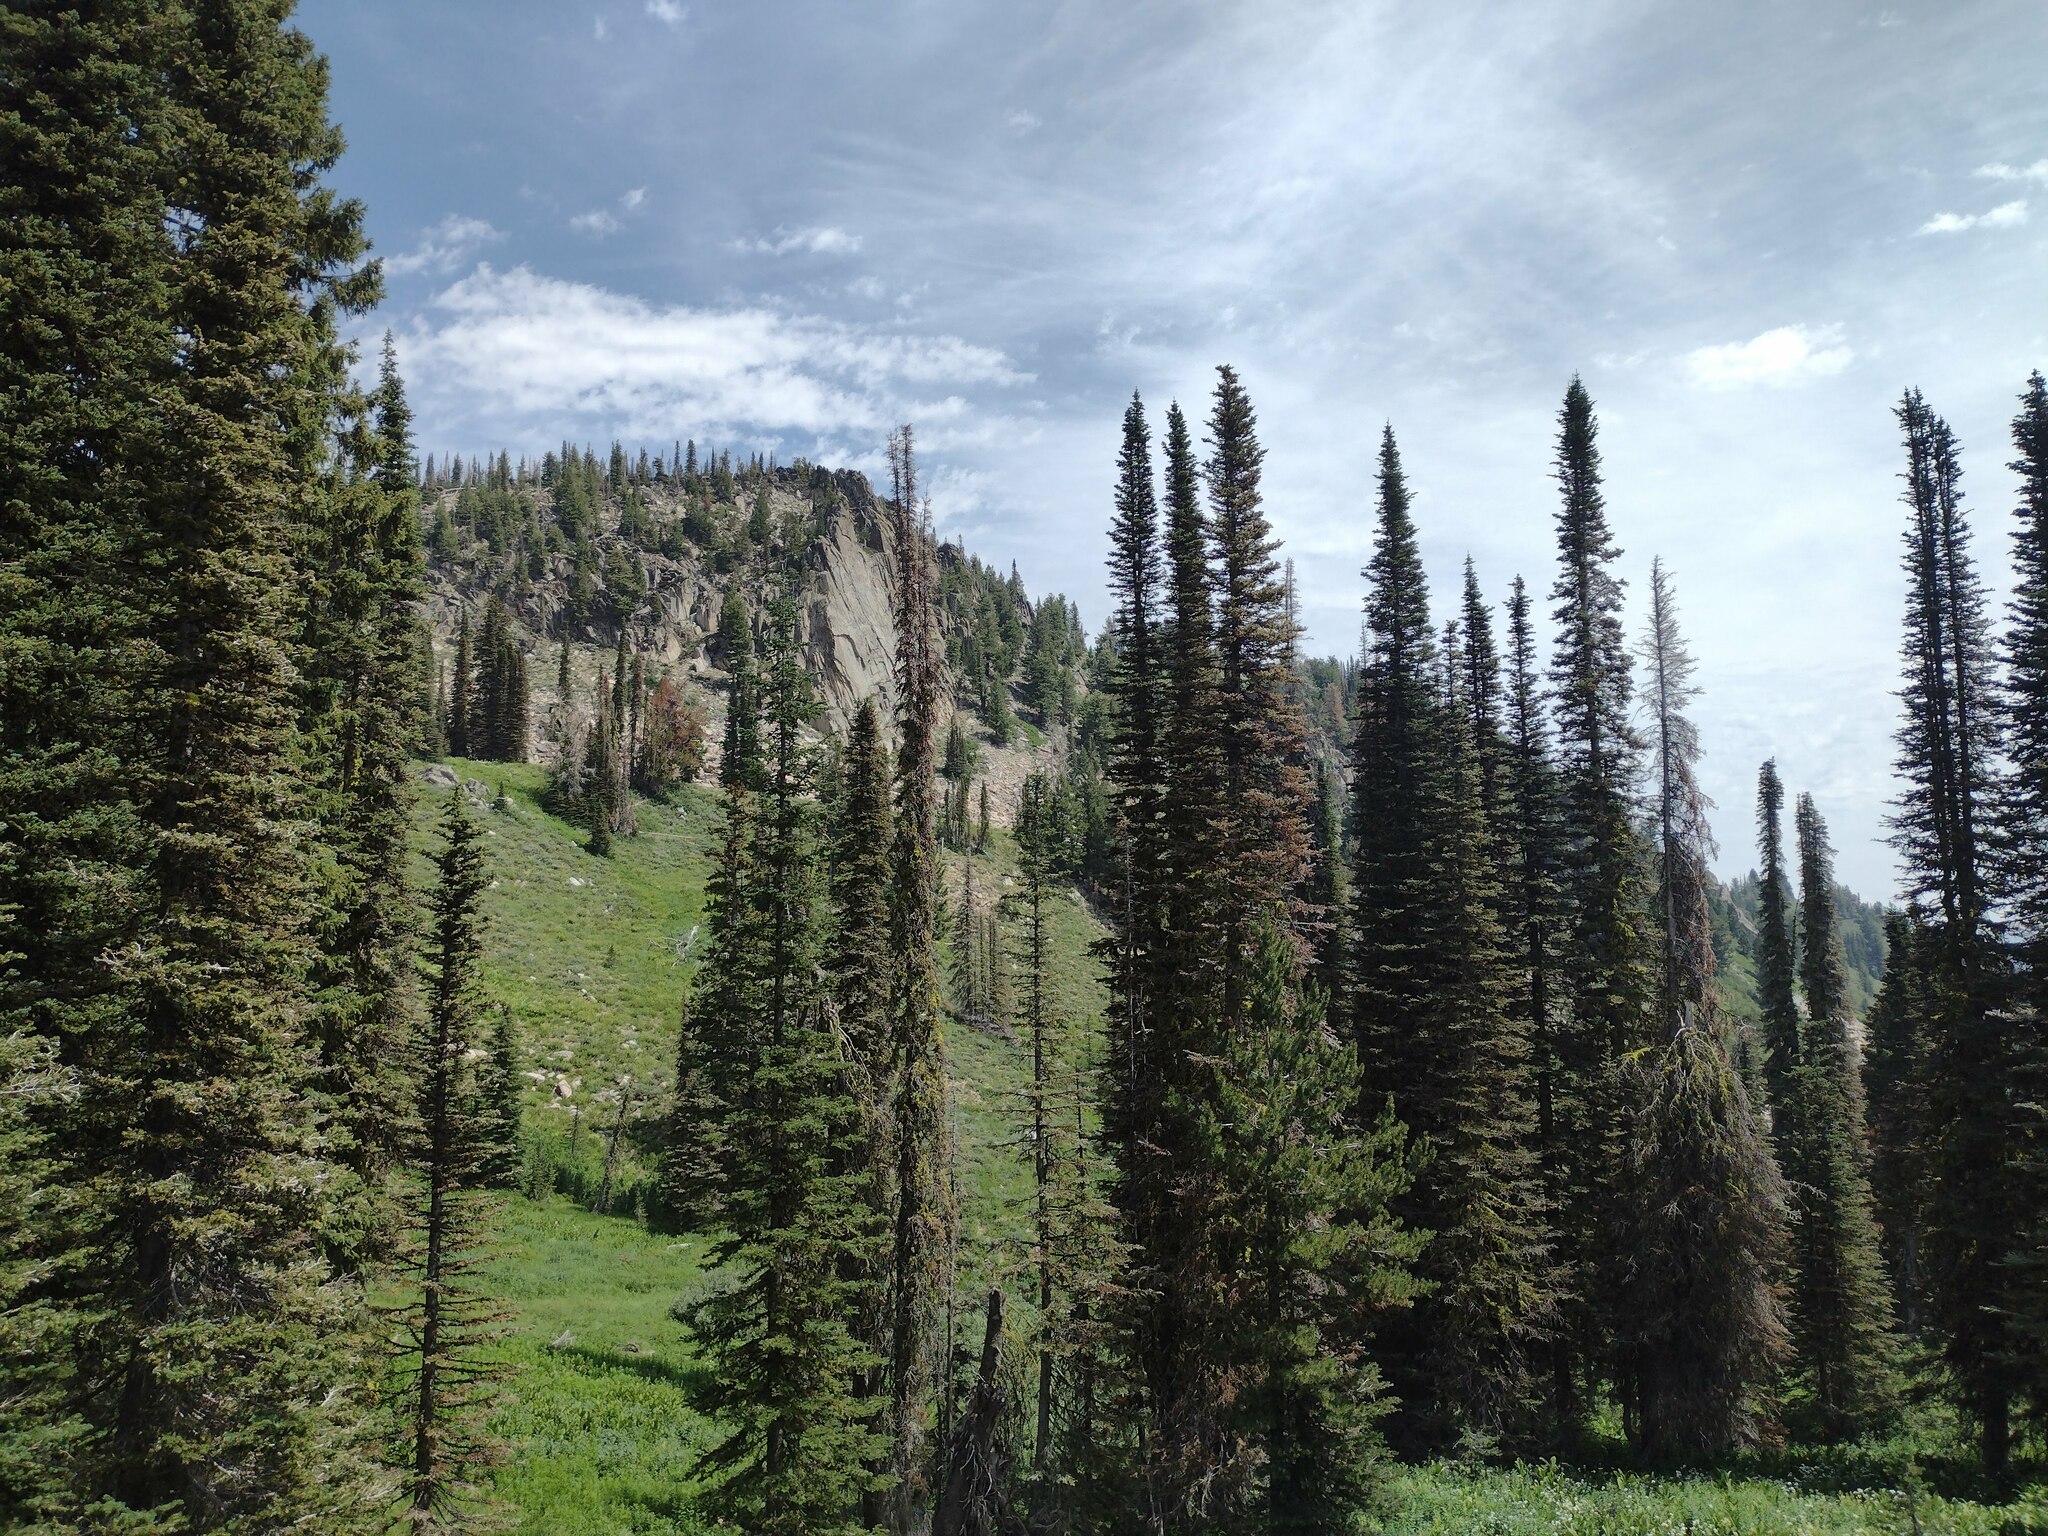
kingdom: Plantae
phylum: Tracheophyta
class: Pinopsida
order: Pinales
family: Pinaceae
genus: Abies
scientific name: Abies lasiocarpa
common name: Subalpine fir
